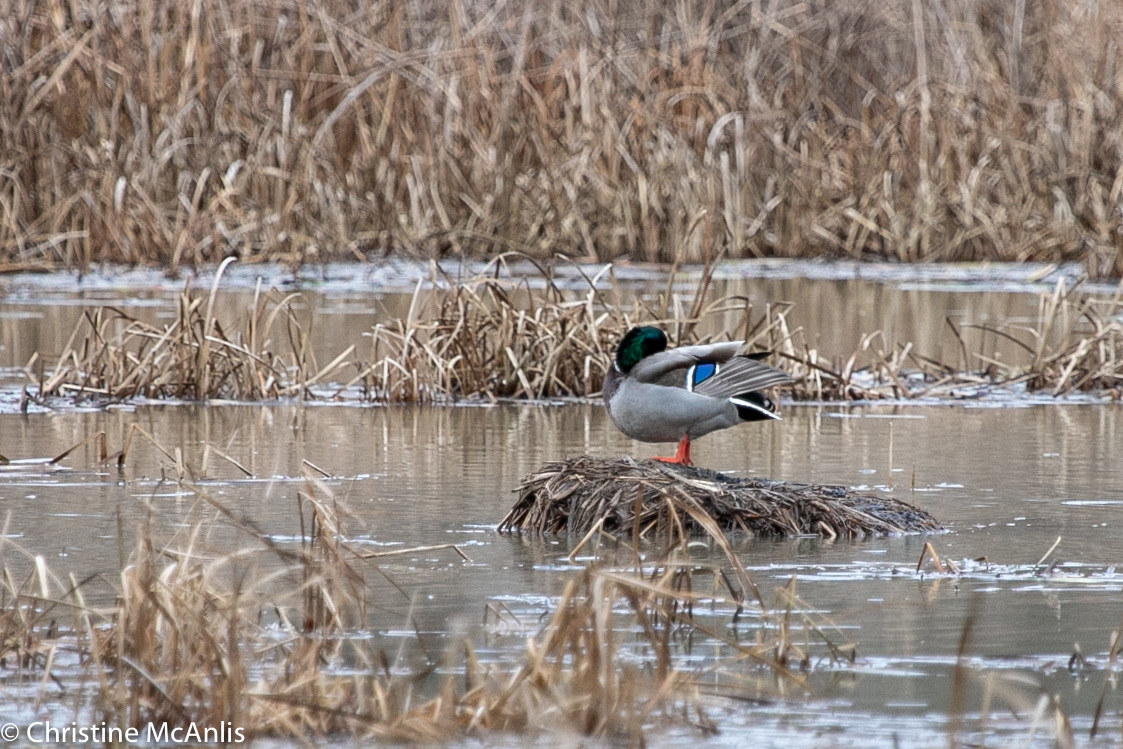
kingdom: Animalia
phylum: Chordata
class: Aves
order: Anseriformes
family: Anatidae
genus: Anas
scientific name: Anas platyrhynchos
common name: Mallard
